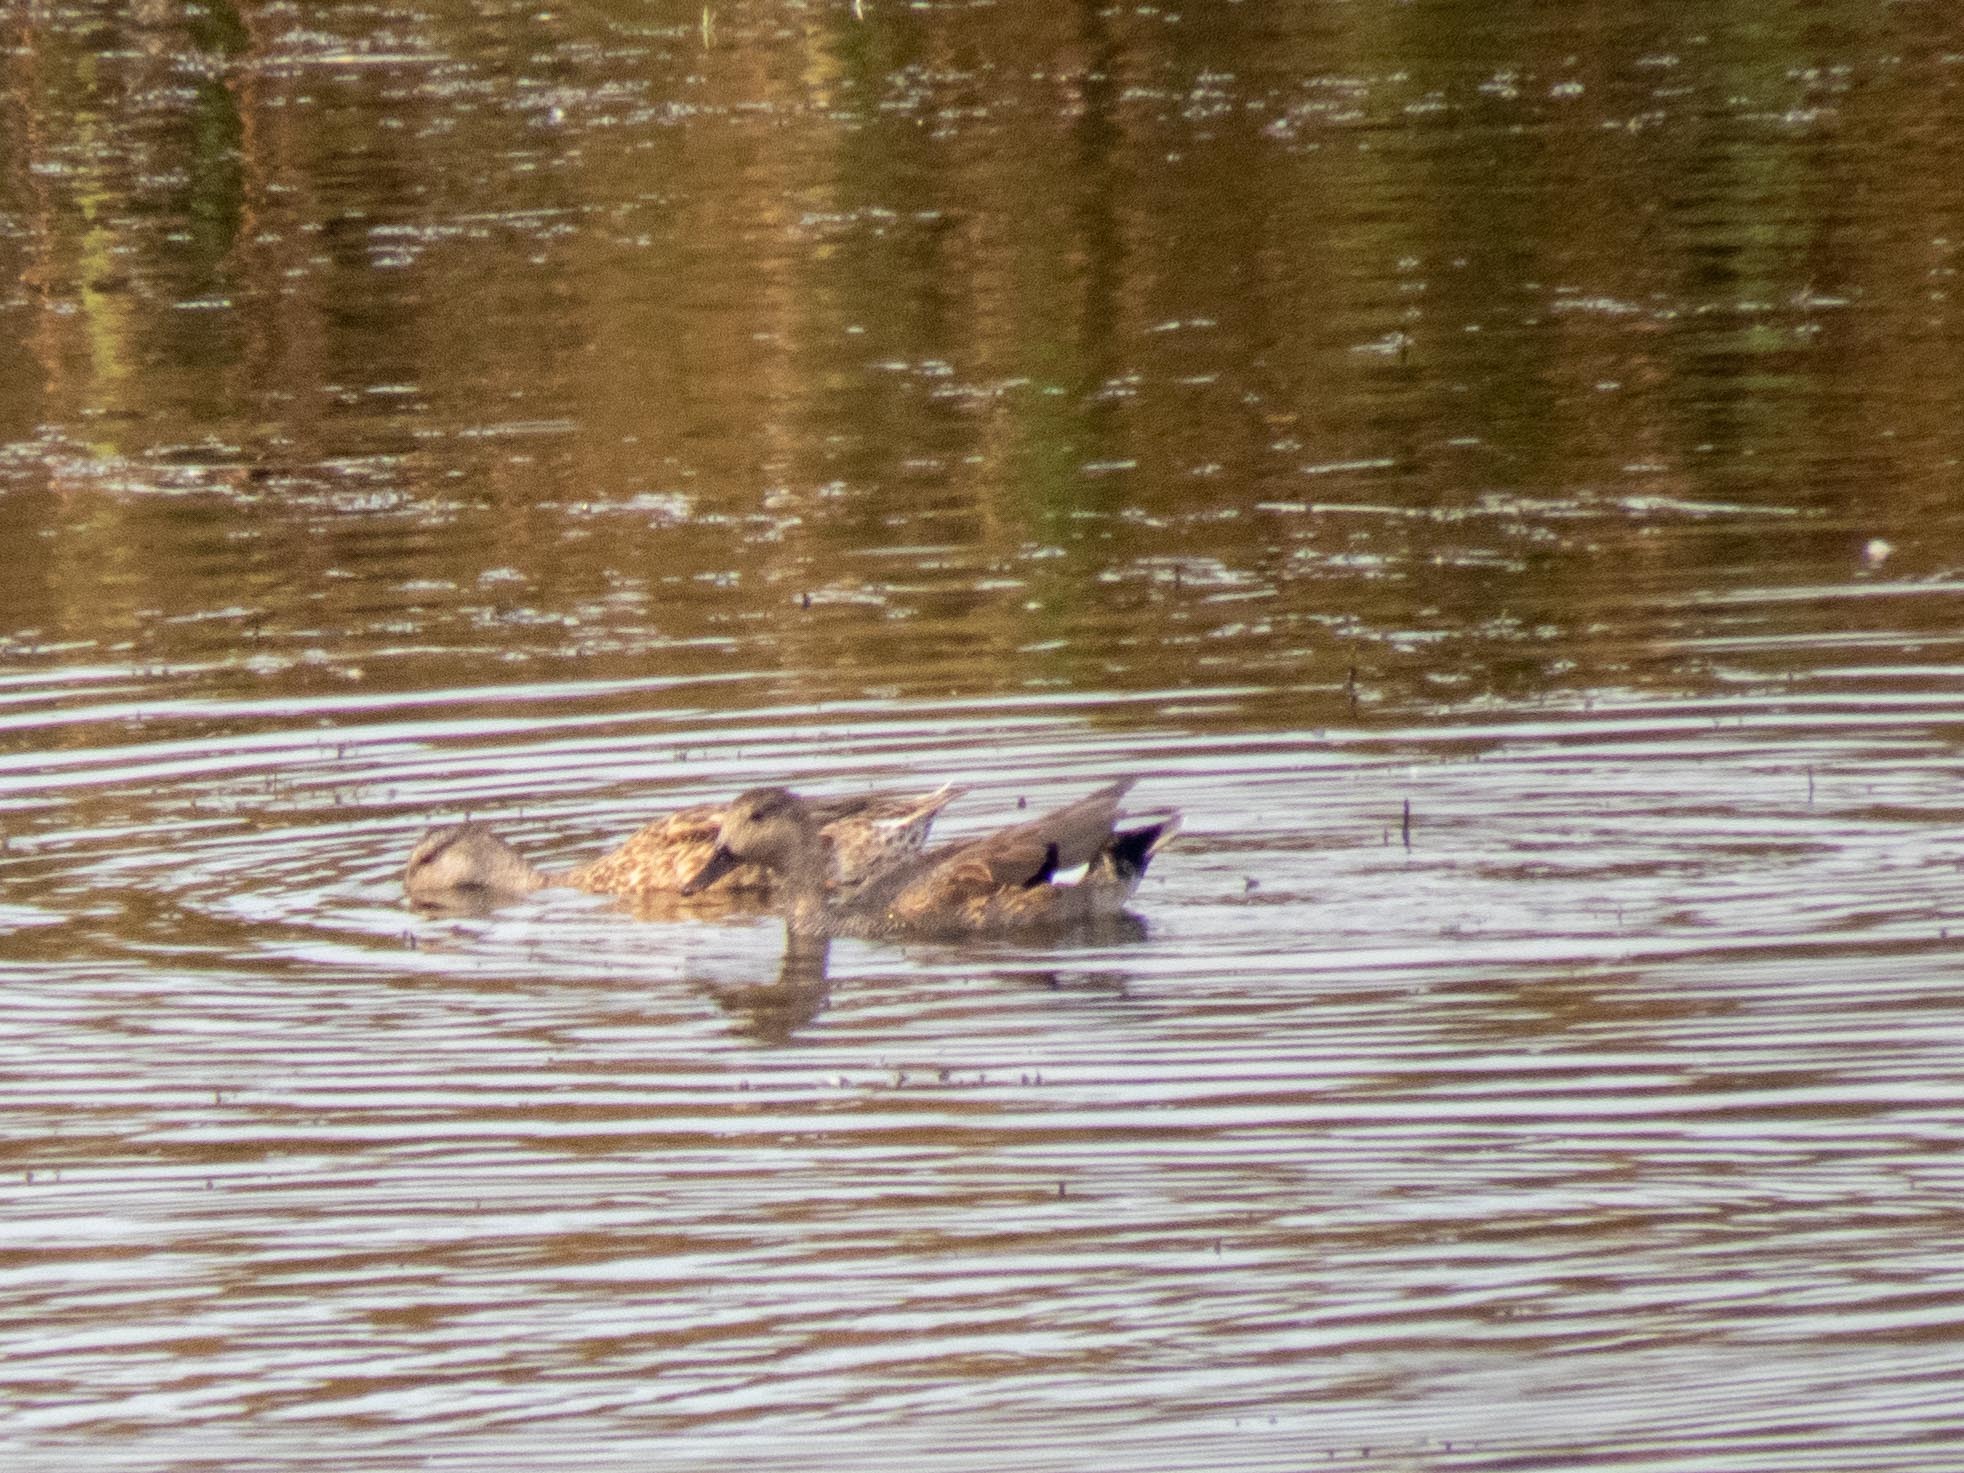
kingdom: Animalia
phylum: Chordata
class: Aves
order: Anseriformes
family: Anatidae
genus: Mareca
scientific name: Mareca strepera
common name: Gadwall
